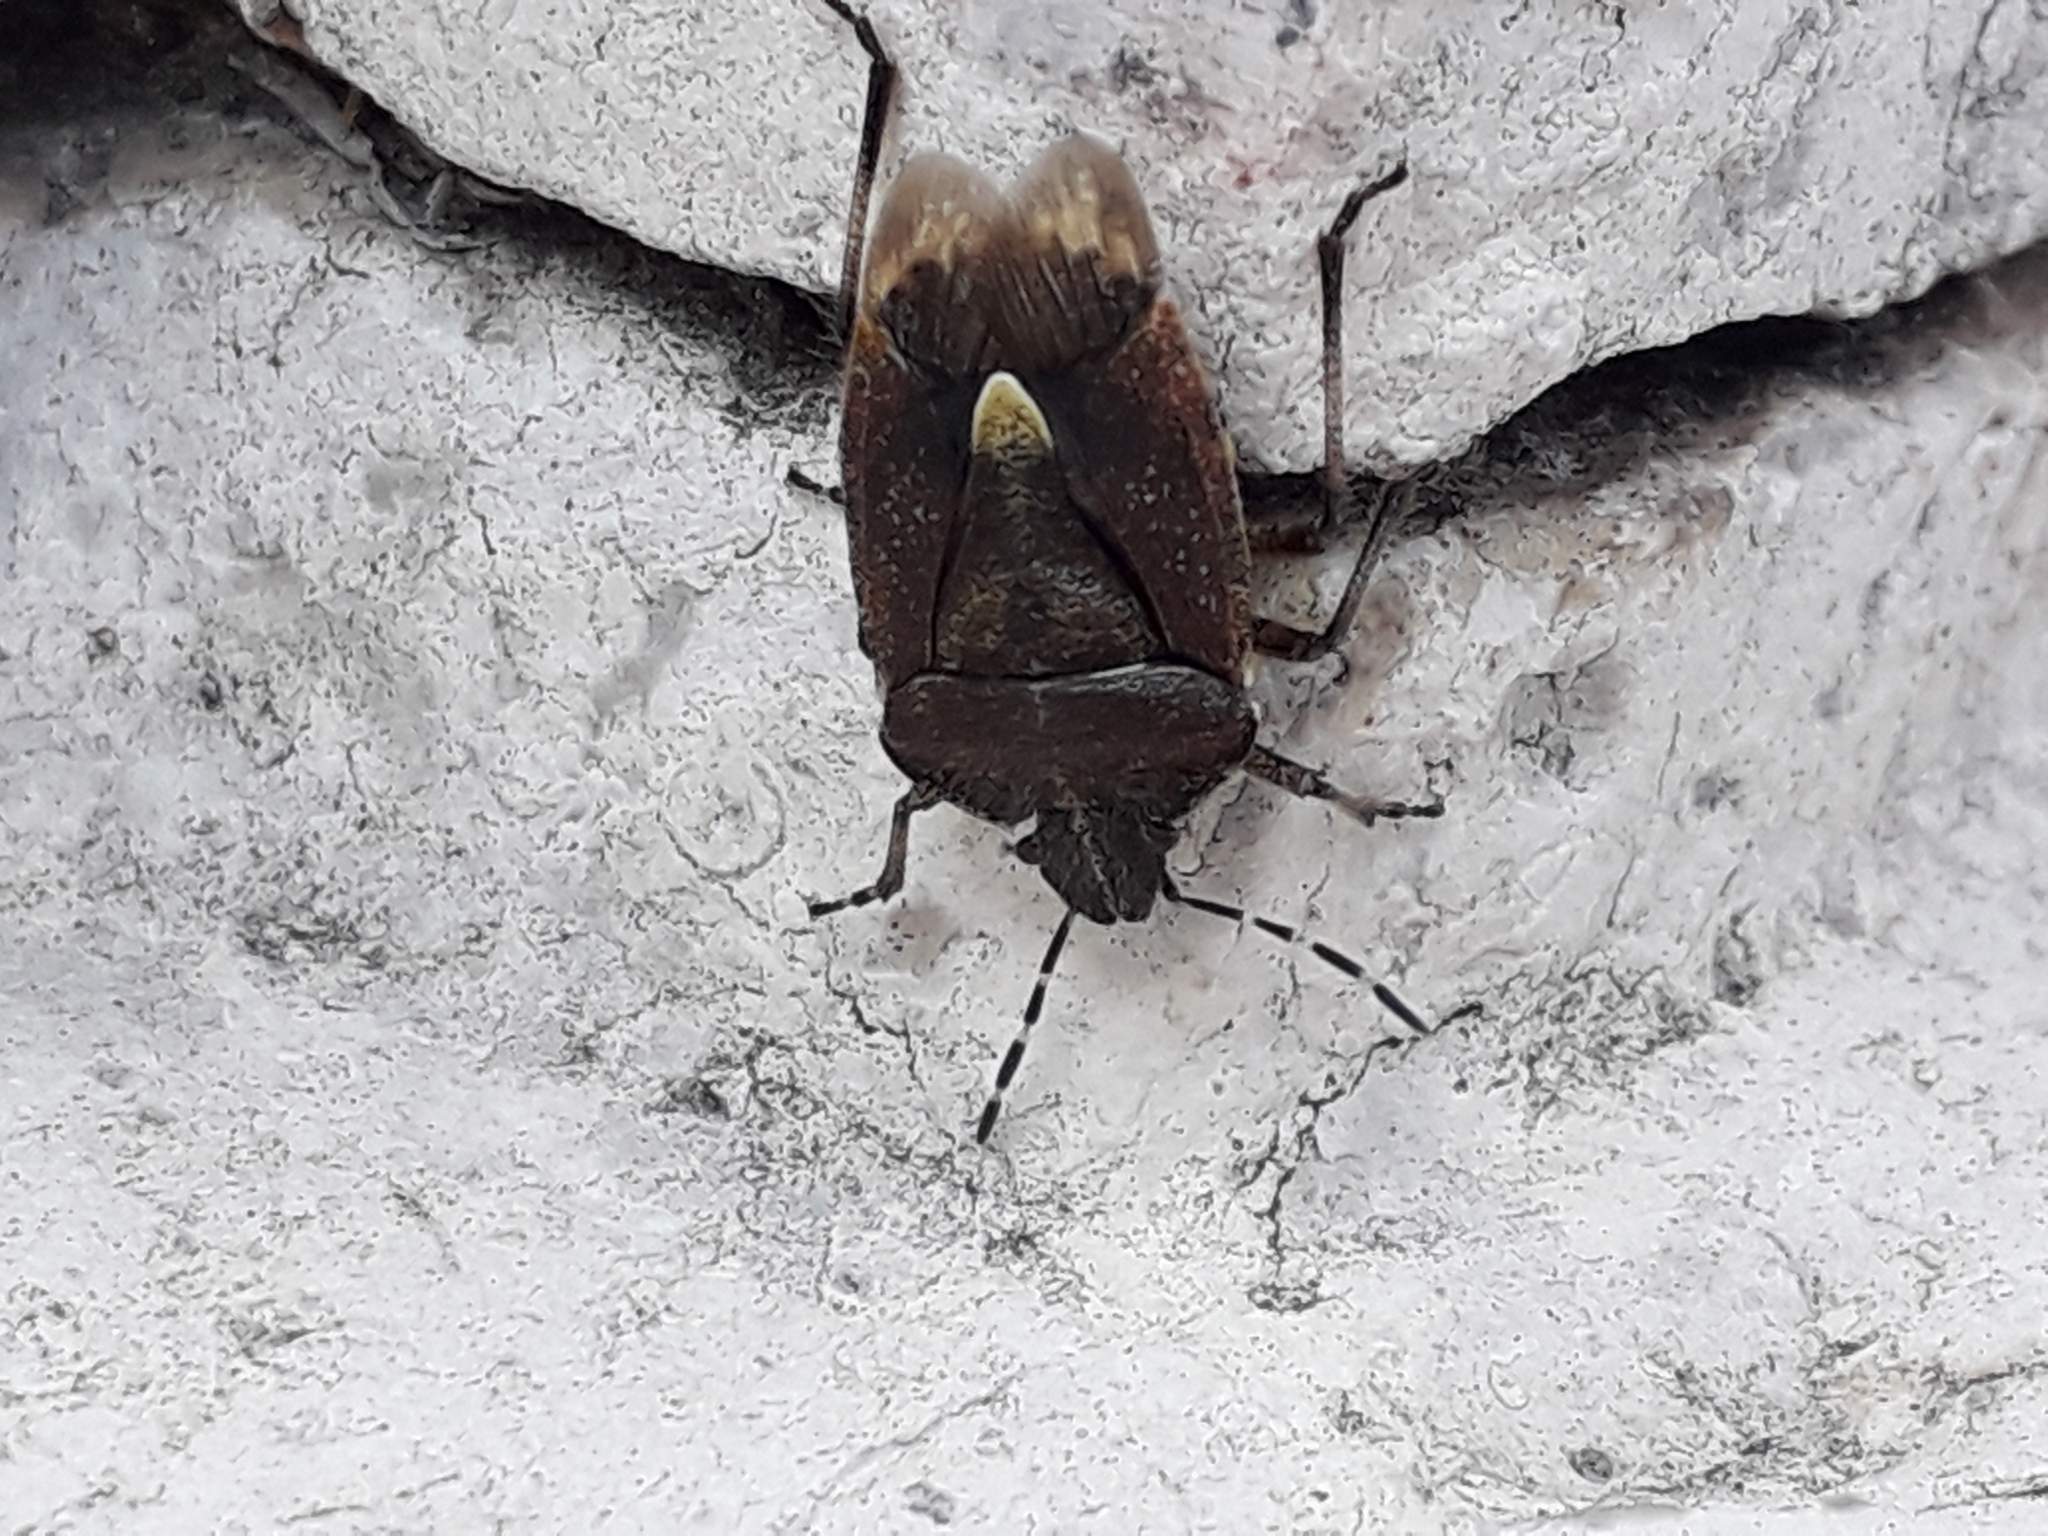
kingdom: Animalia
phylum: Arthropoda
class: Insecta
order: Hemiptera
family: Pentatomidae
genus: Dolycoris
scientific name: Dolycoris baccarum
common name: Sloe bug
